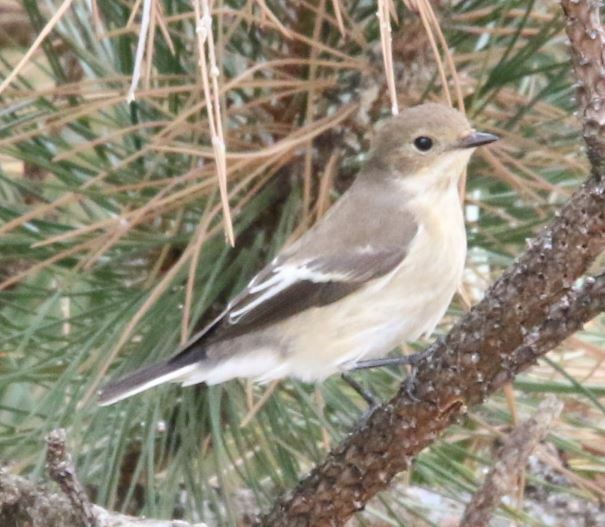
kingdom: Animalia
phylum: Chordata
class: Aves
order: Passeriformes
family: Muscicapidae
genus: Ficedula
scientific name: Ficedula hypoleuca
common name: European pied flycatcher
